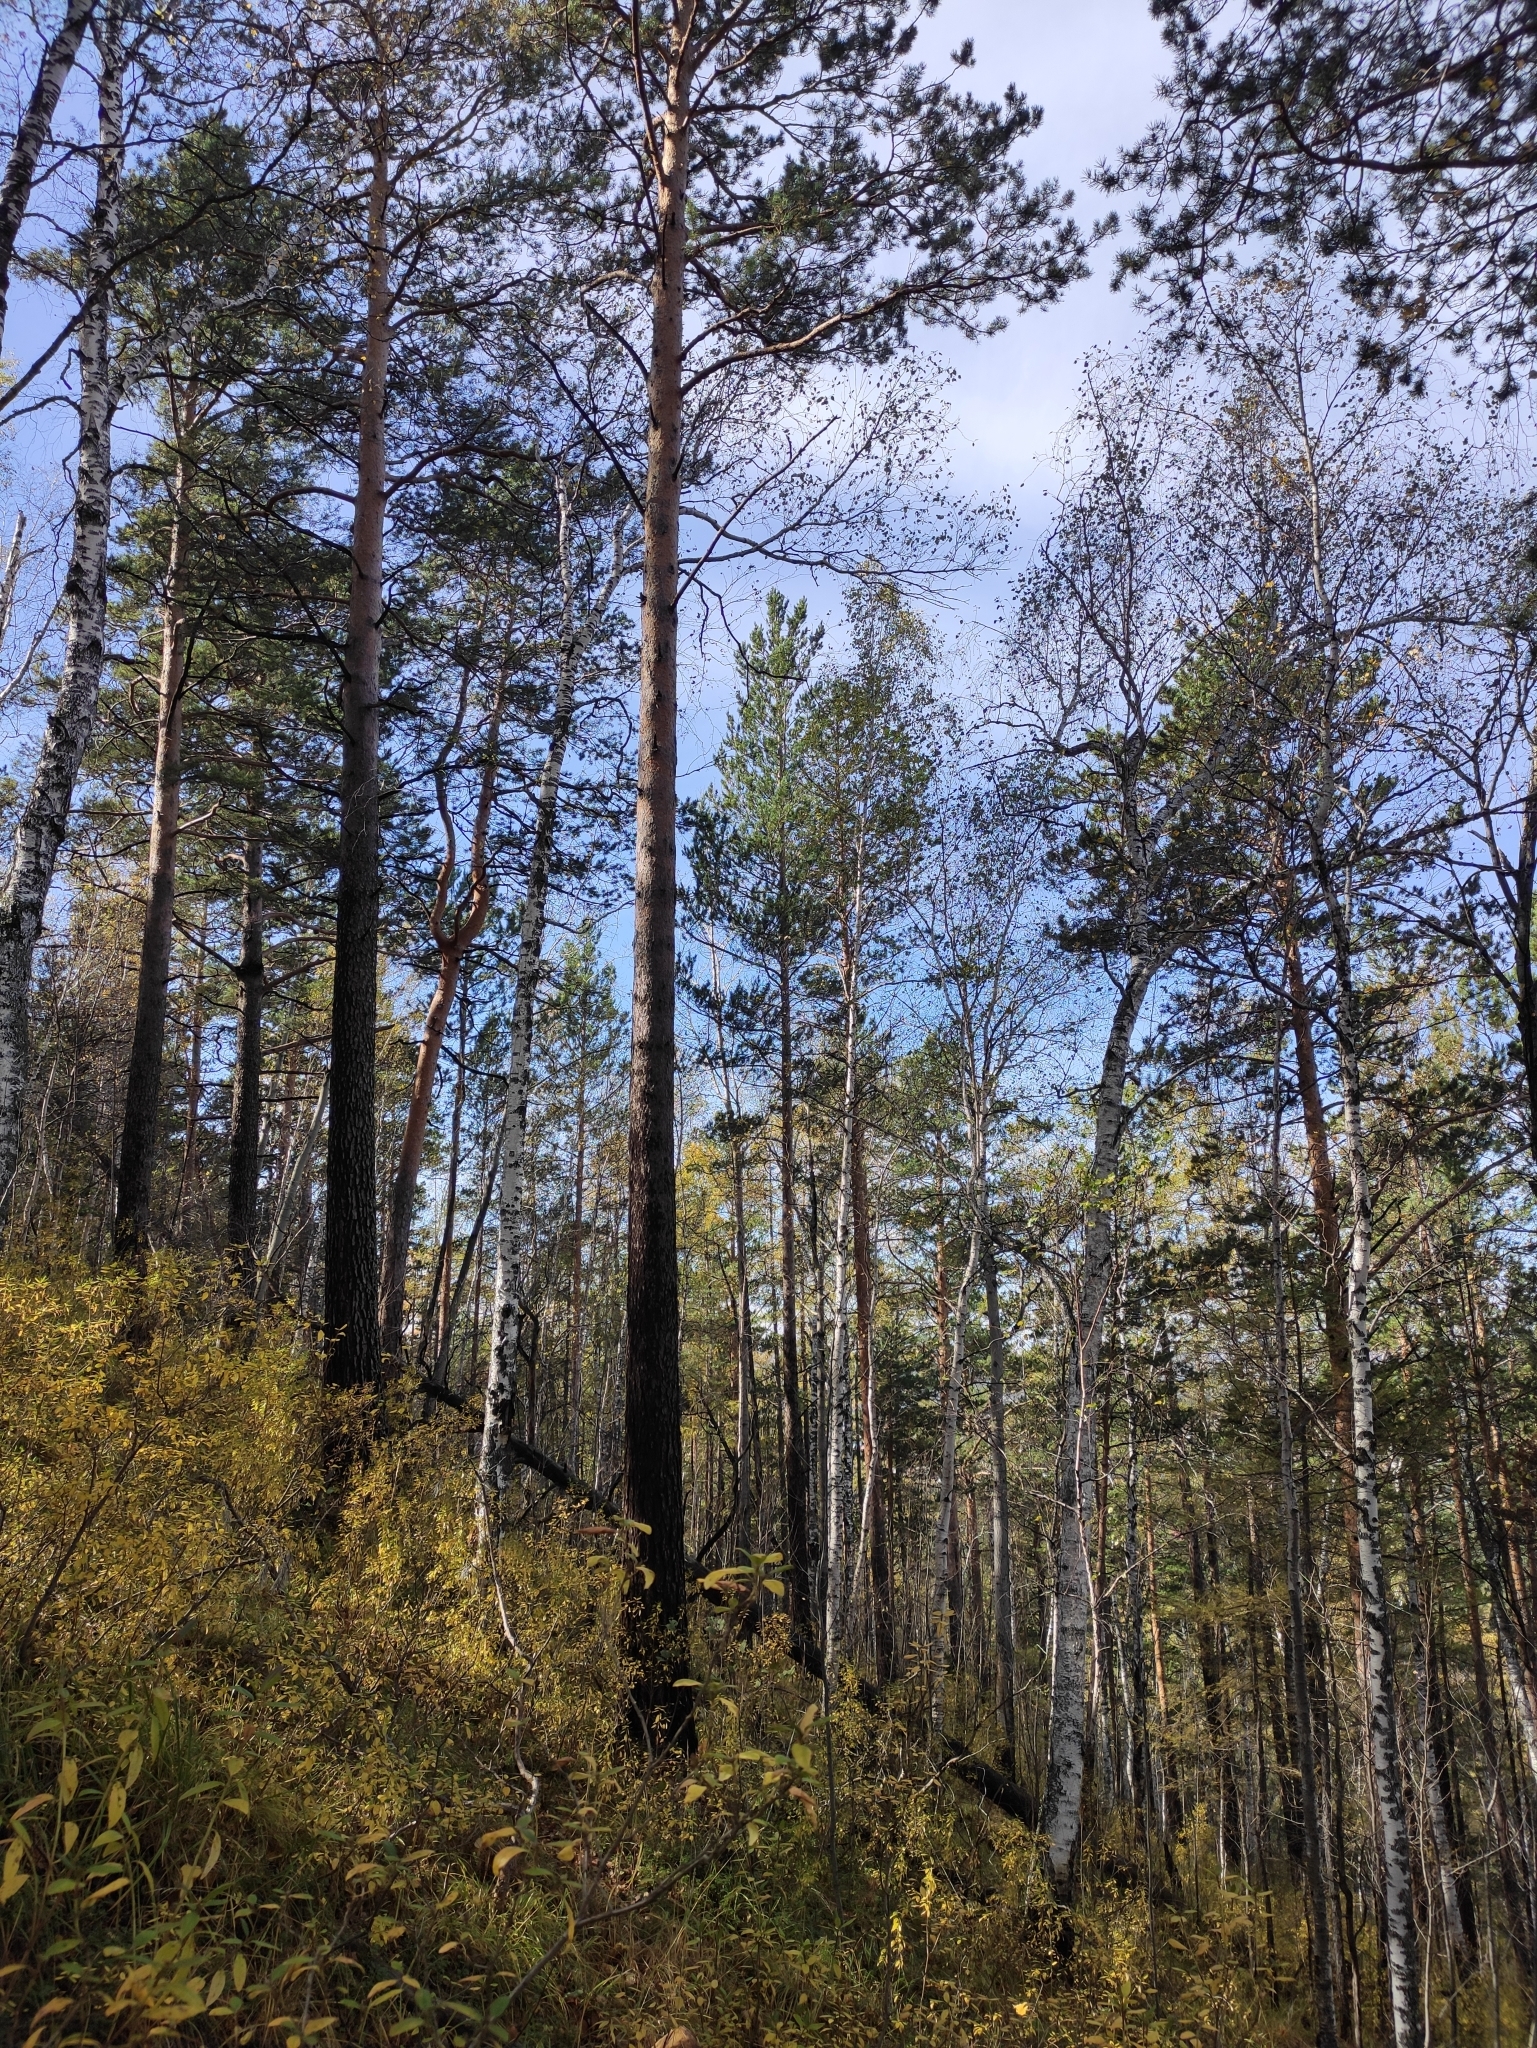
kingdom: Plantae
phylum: Tracheophyta
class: Pinopsida
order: Pinales
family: Pinaceae
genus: Pinus
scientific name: Pinus sylvestris
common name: Scots pine
